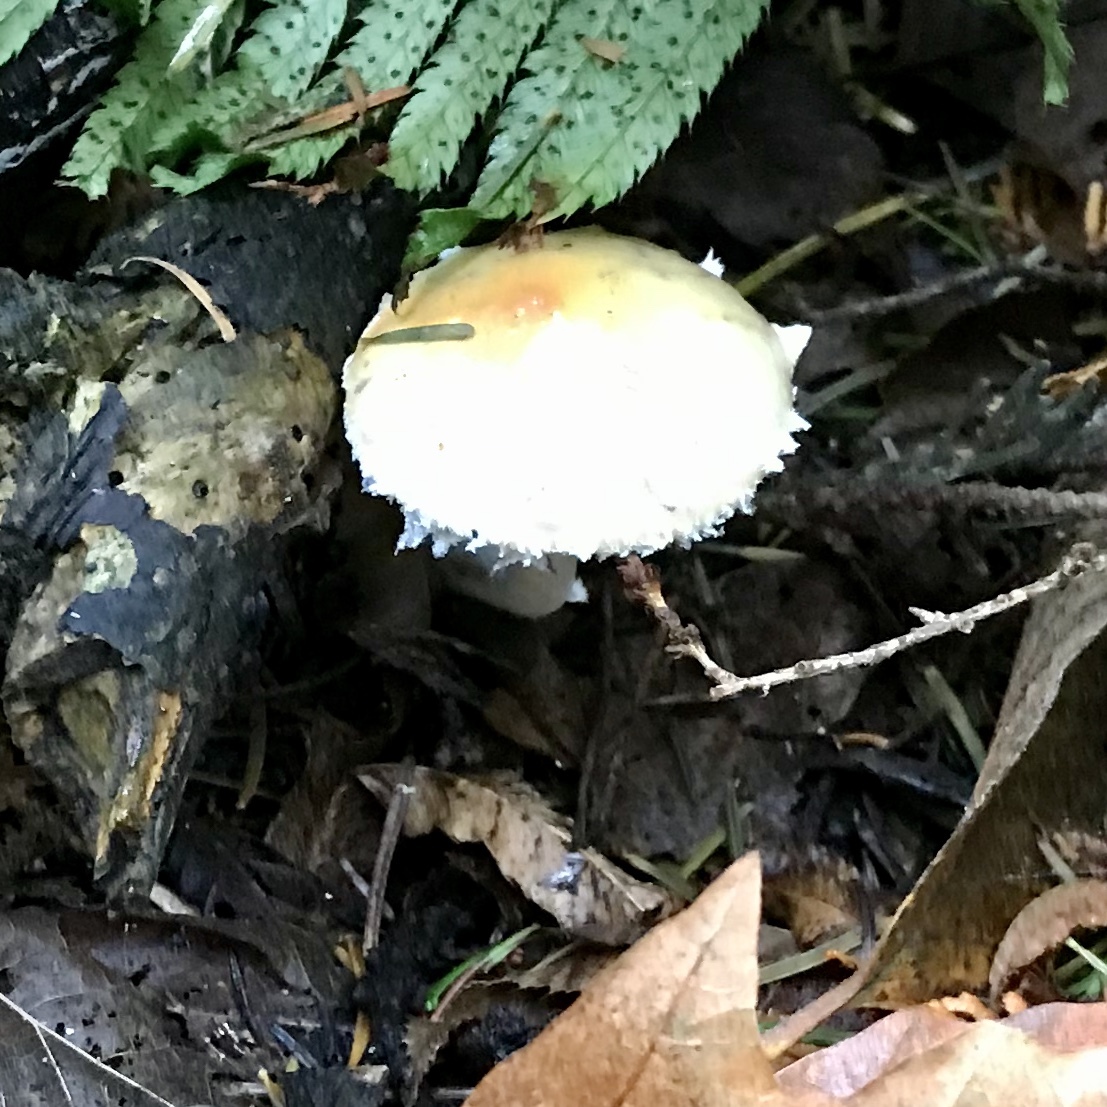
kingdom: Fungi
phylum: Basidiomycota
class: Agaricomycetes
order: Agaricales
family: Strophariaceae
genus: Stropharia
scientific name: Stropharia ambigua
